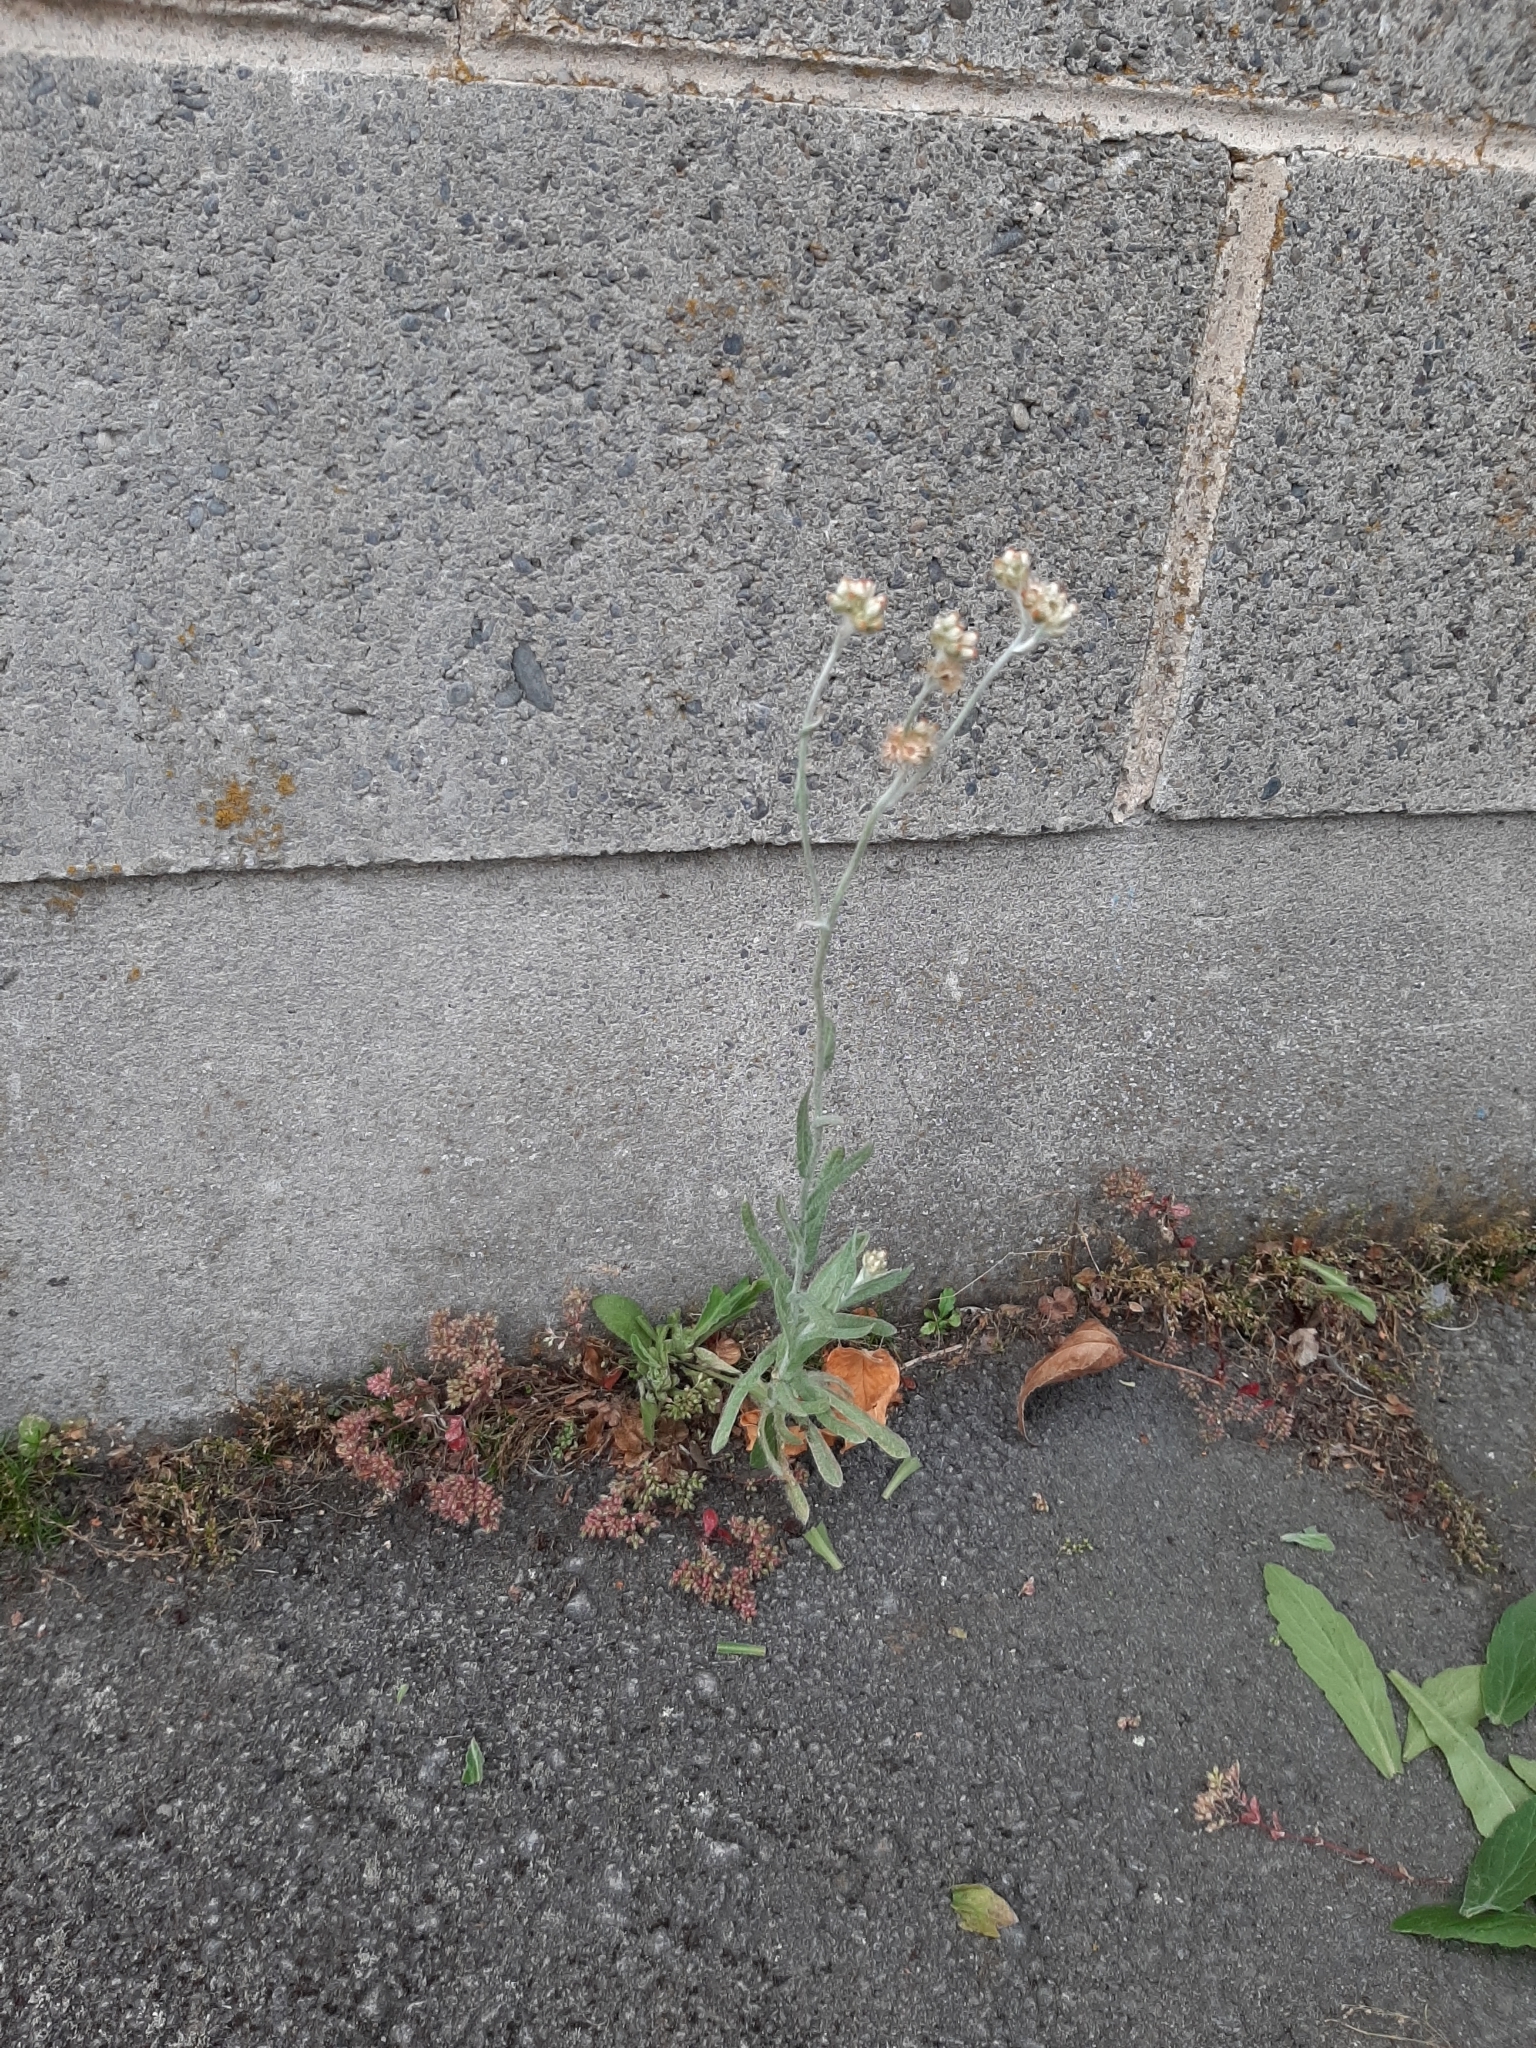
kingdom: Plantae
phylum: Tracheophyta
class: Magnoliopsida
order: Asterales
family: Asteraceae
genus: Helichrysum
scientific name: Helichrysum luteoalbum
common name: Daisy
